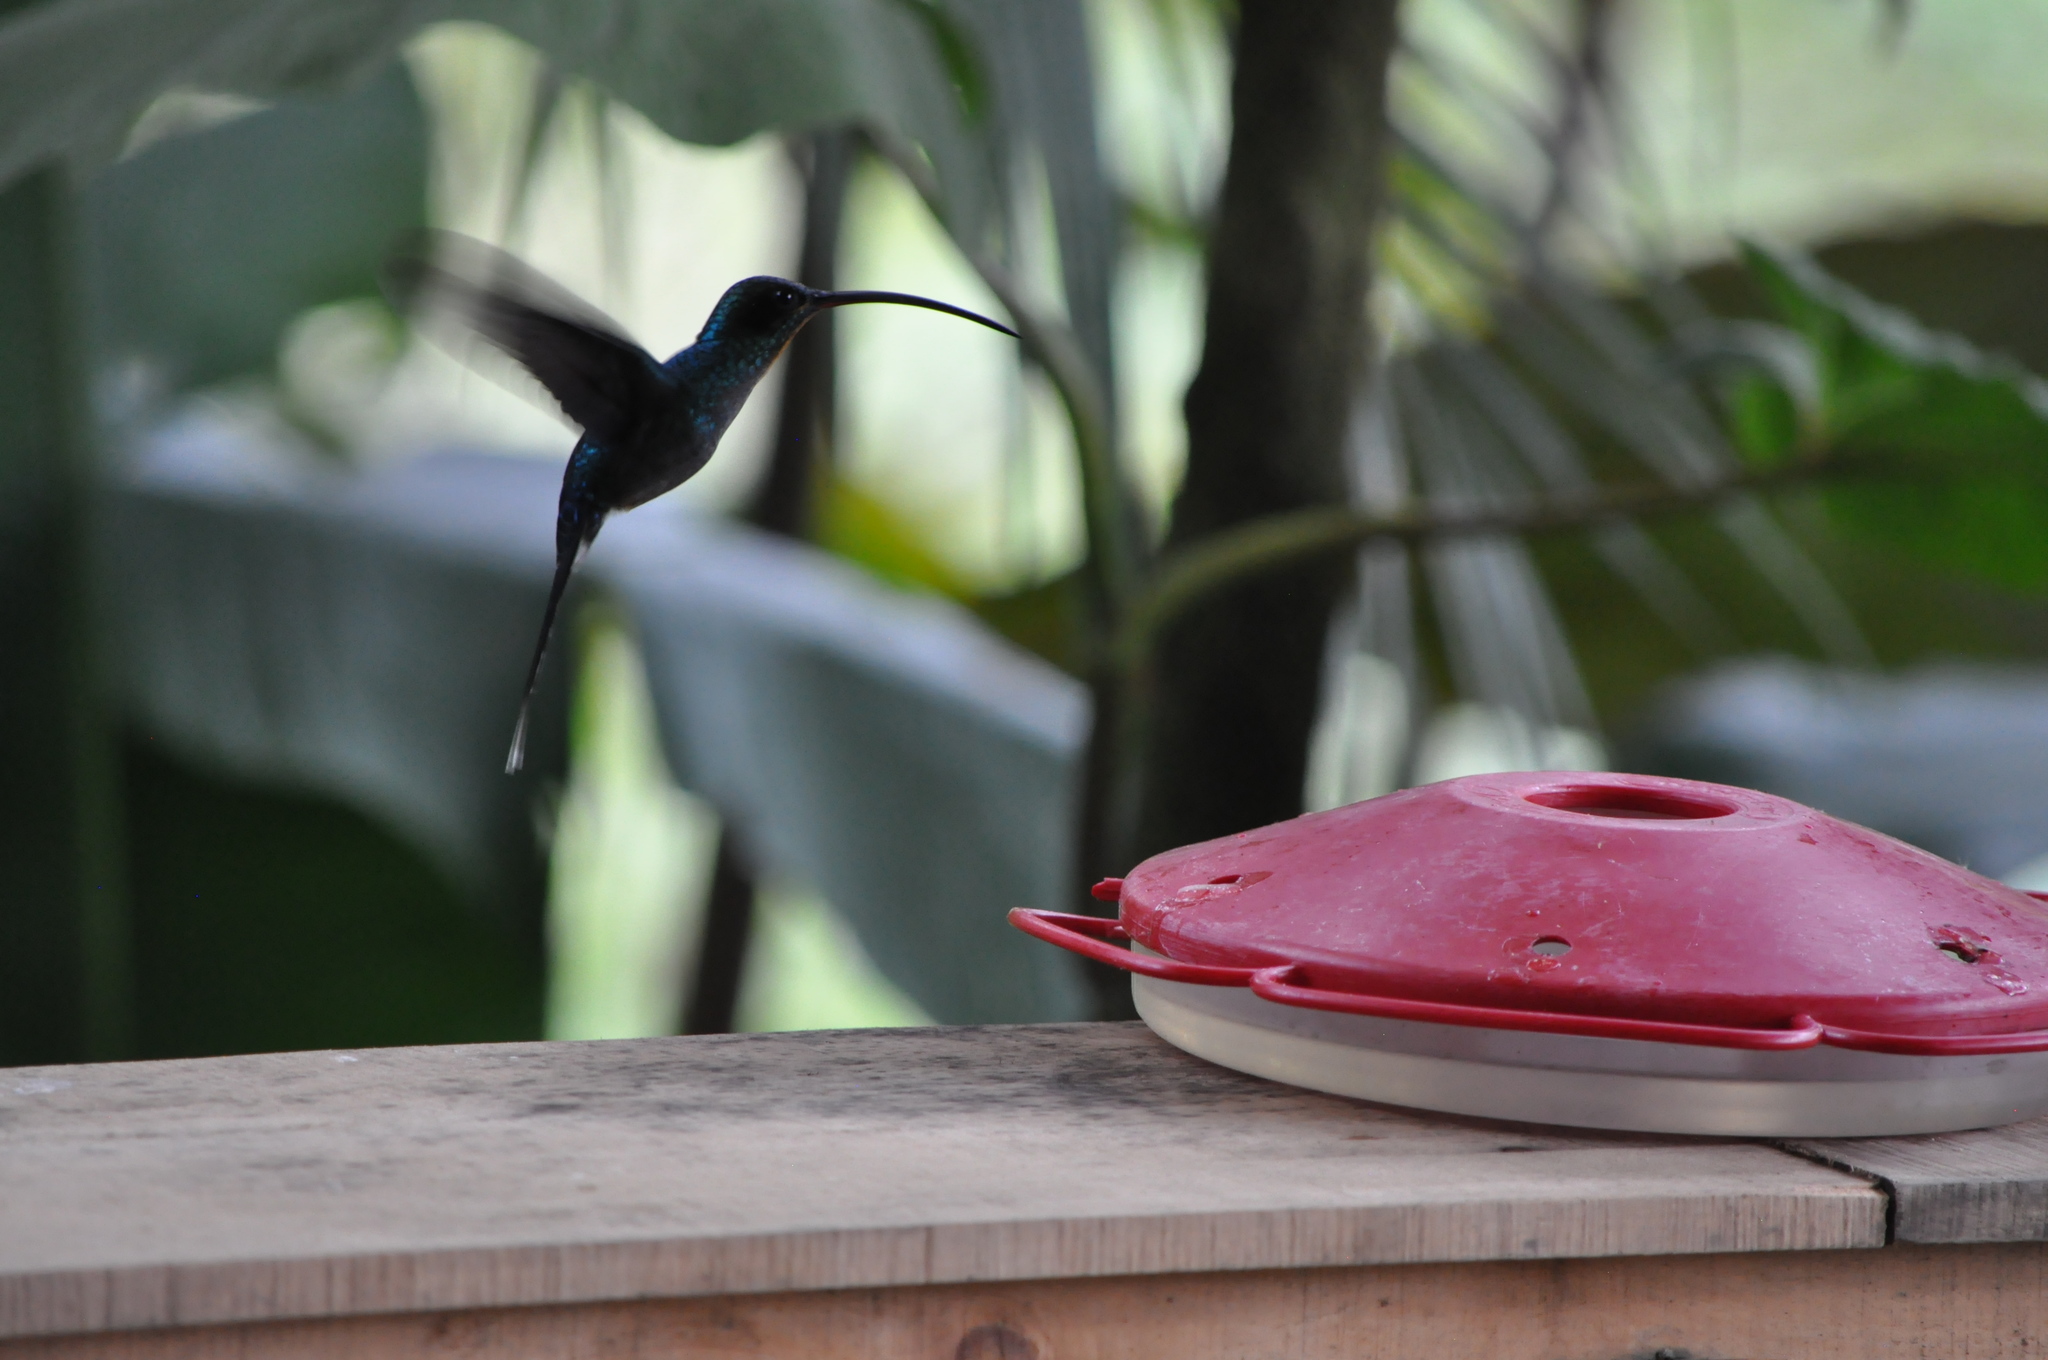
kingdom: Animalia
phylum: Chordata
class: Aves
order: Apodiformes
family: Trochilidae
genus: Phaethornis
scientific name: Phaethornis guy
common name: Green hermit
